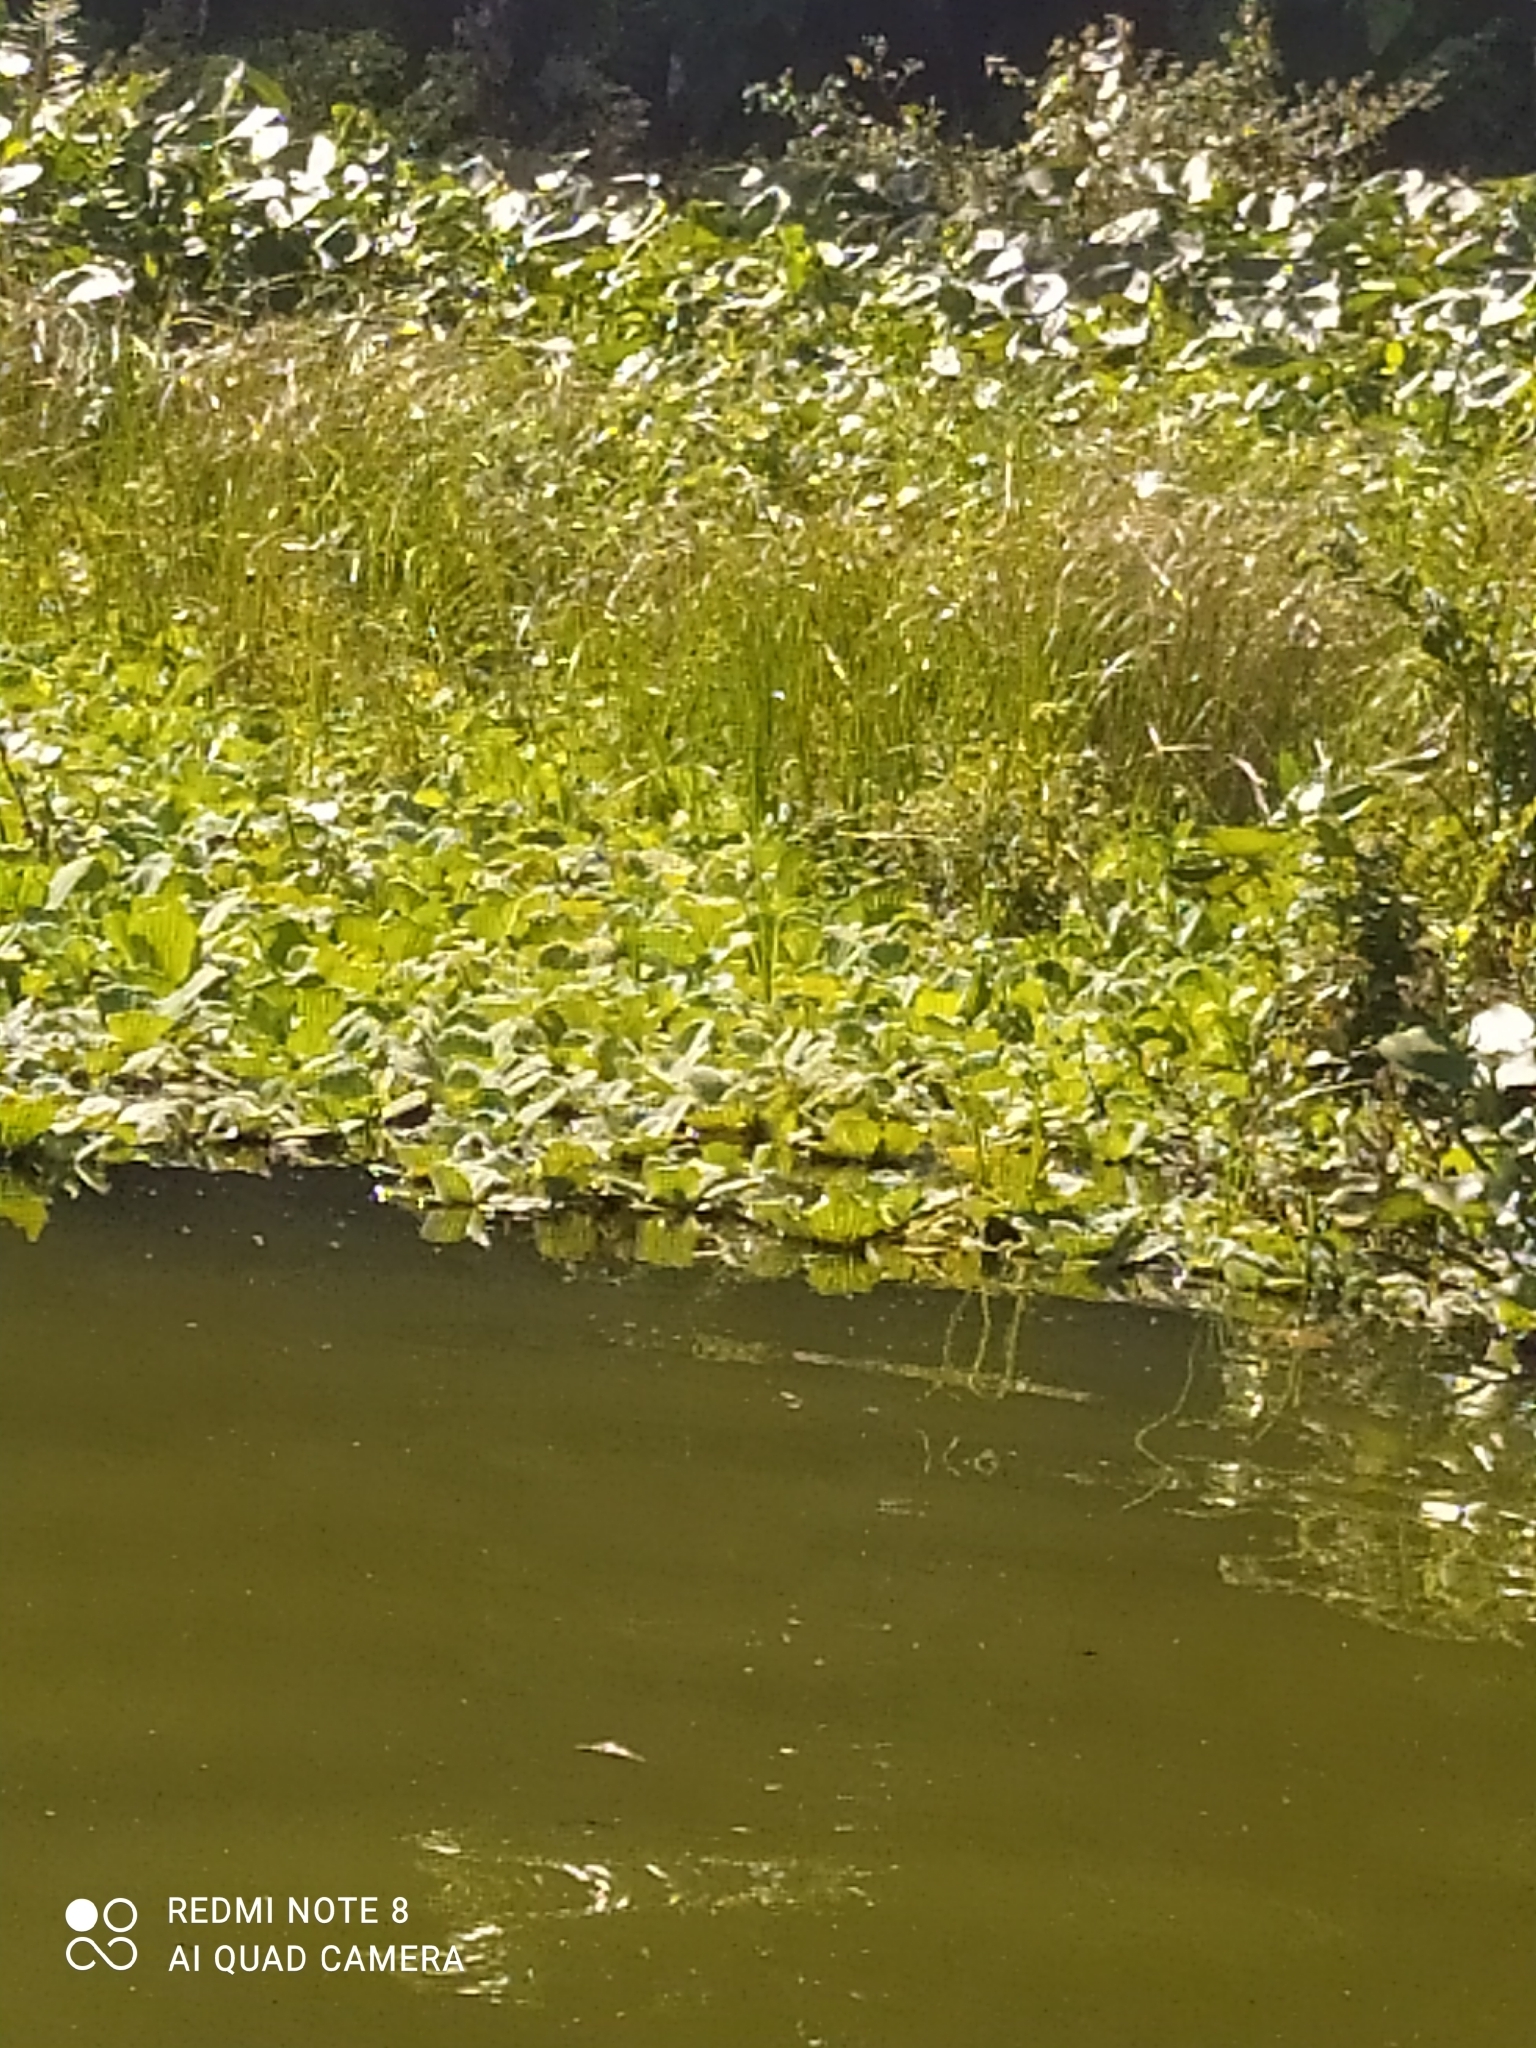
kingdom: Plantae
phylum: Tracheophyta
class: Liliopsida
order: Alismatales
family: Araceae
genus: Pistia
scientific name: Pistia stratiotes
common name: Water lettuce
